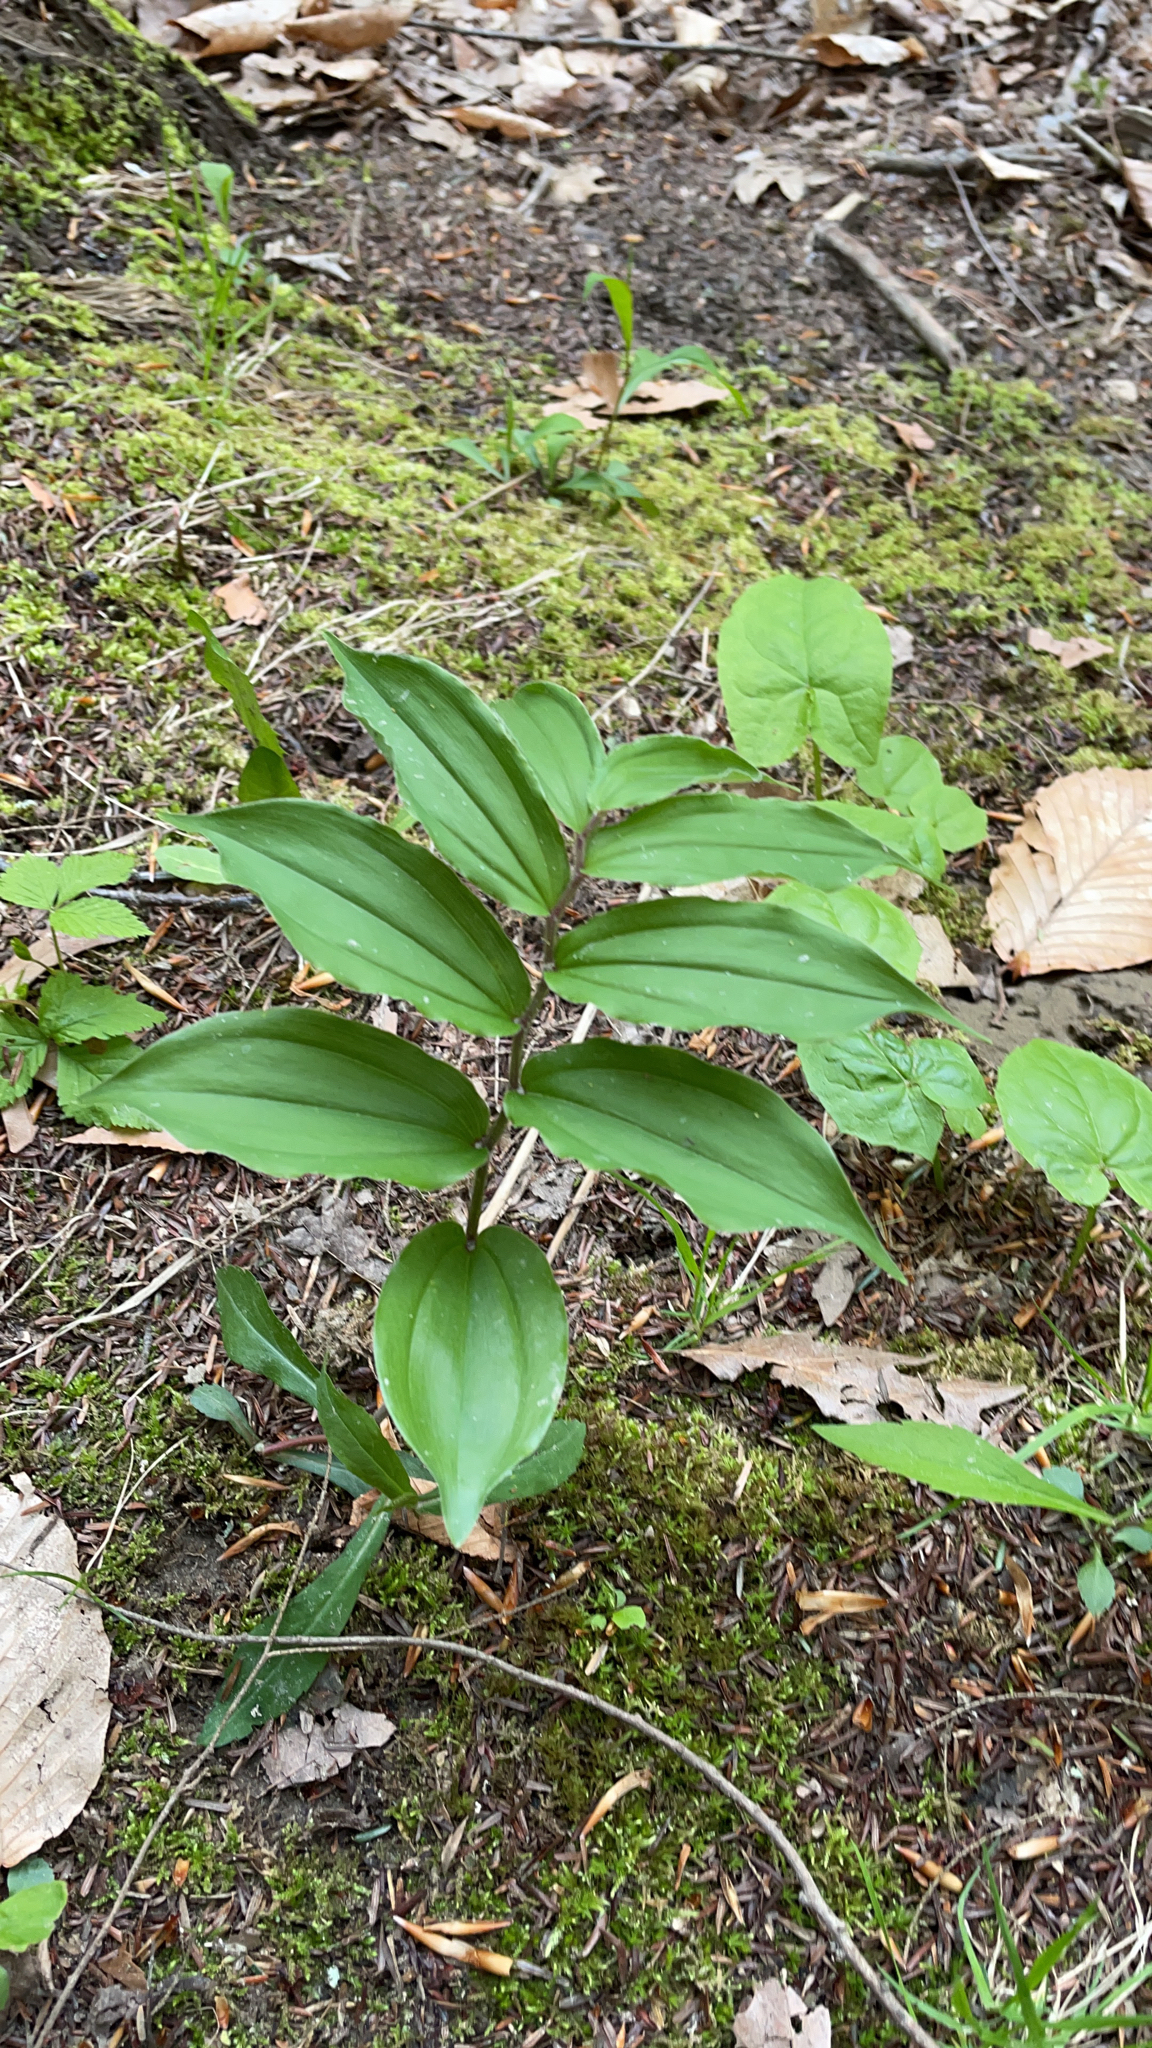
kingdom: Plantae
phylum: Tracheophyta
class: Liliopsida
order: Asparagales
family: Asparagaceae
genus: Maianthemum
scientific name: Maianthemum racemosum
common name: False spikenard
